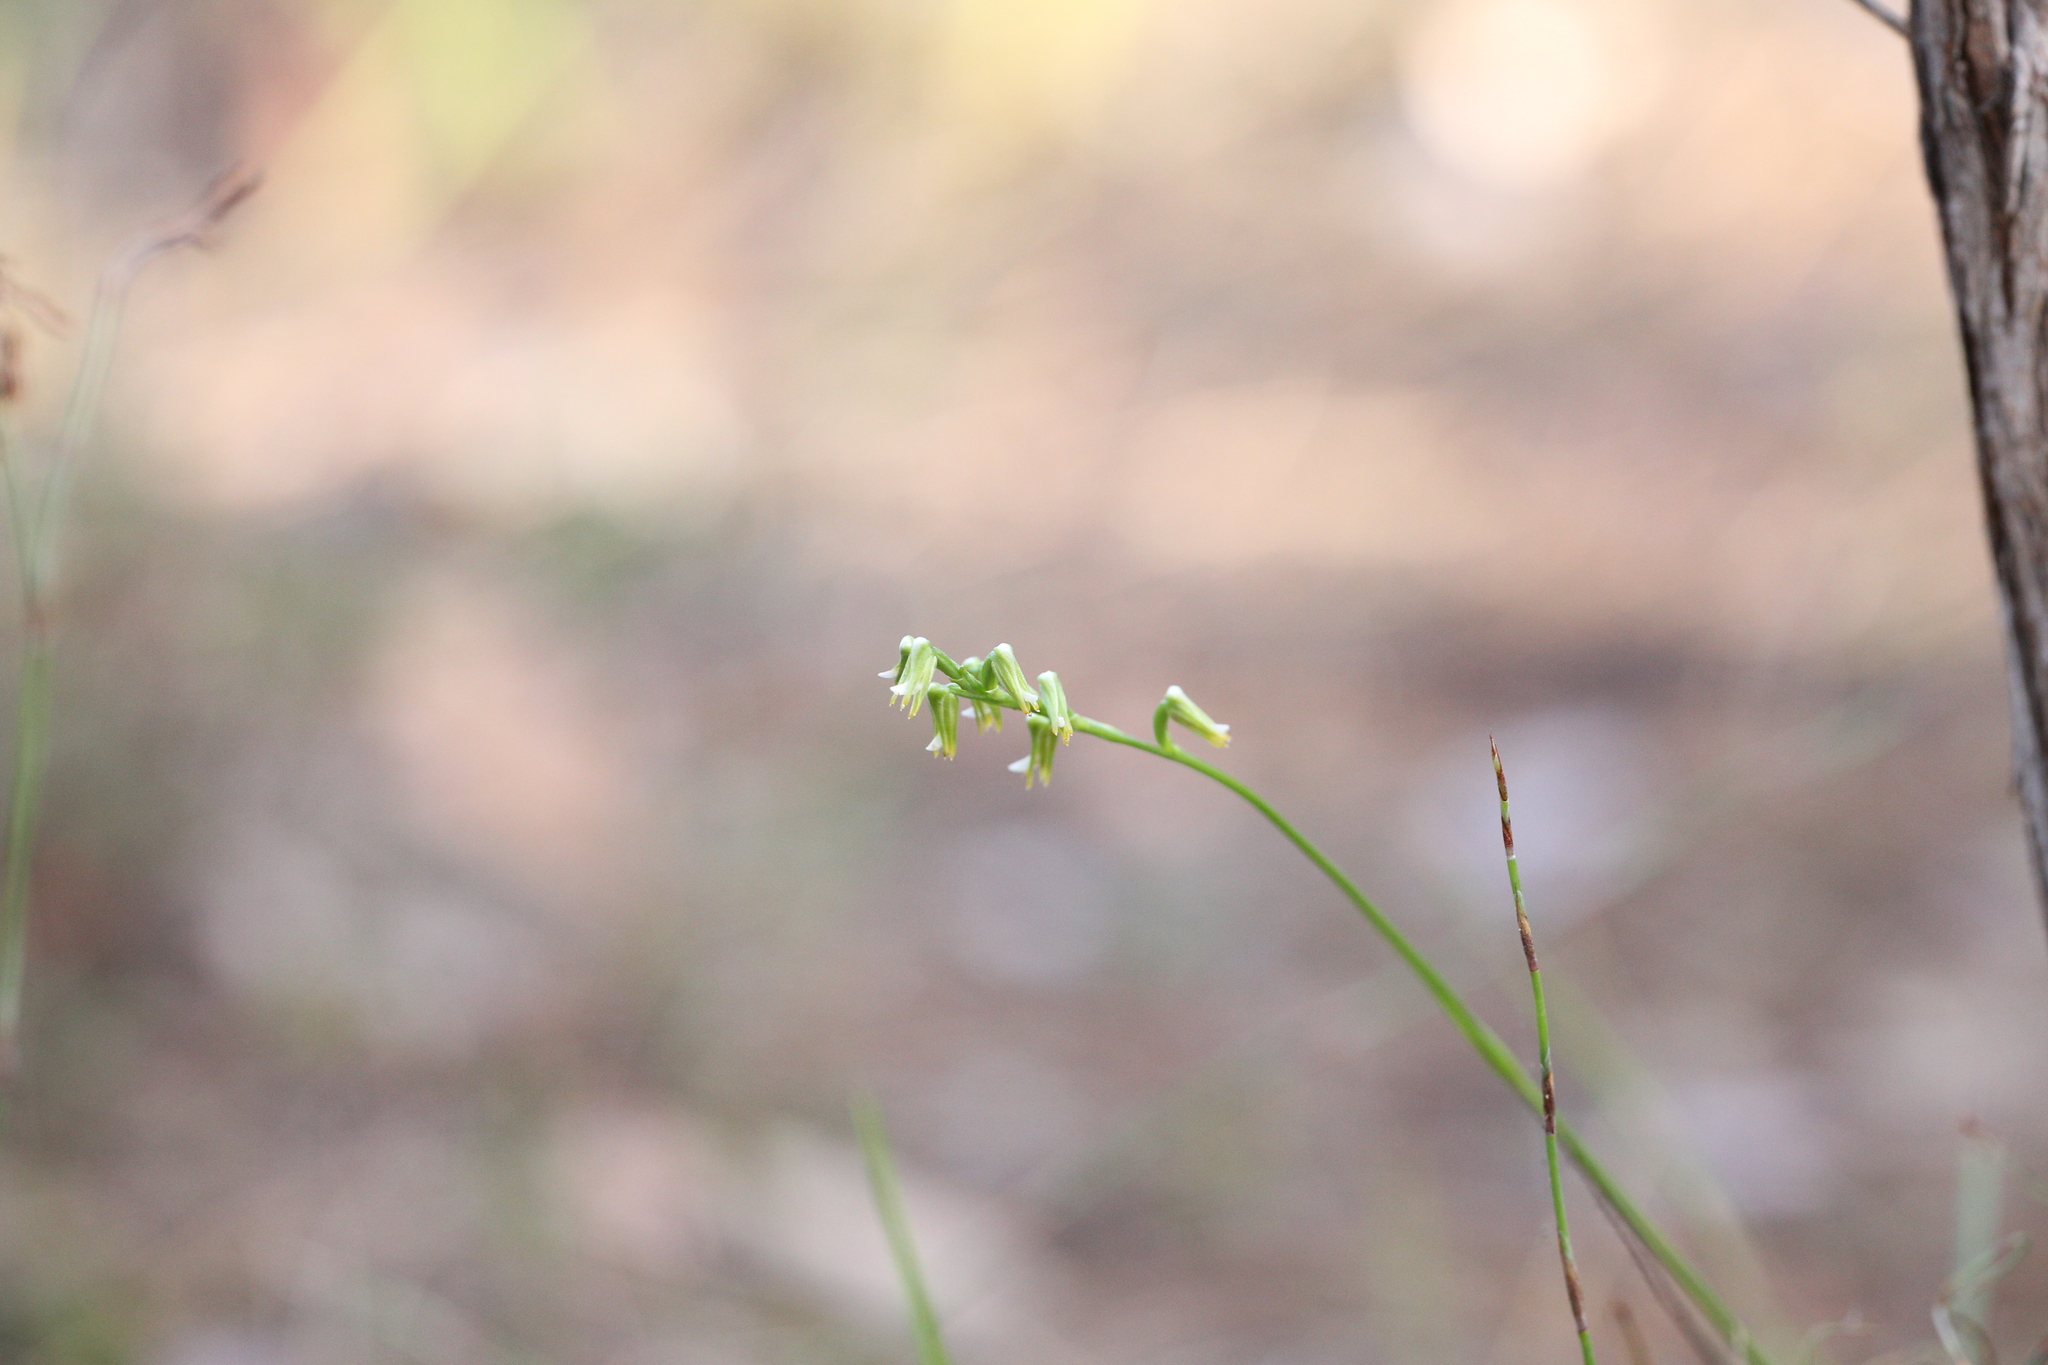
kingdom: Plantae
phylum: Tracheophyta
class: Liliopsida
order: Asparagales
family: Orchidaceae
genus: Prasophyllum
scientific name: Prasophyllum parvifolium
